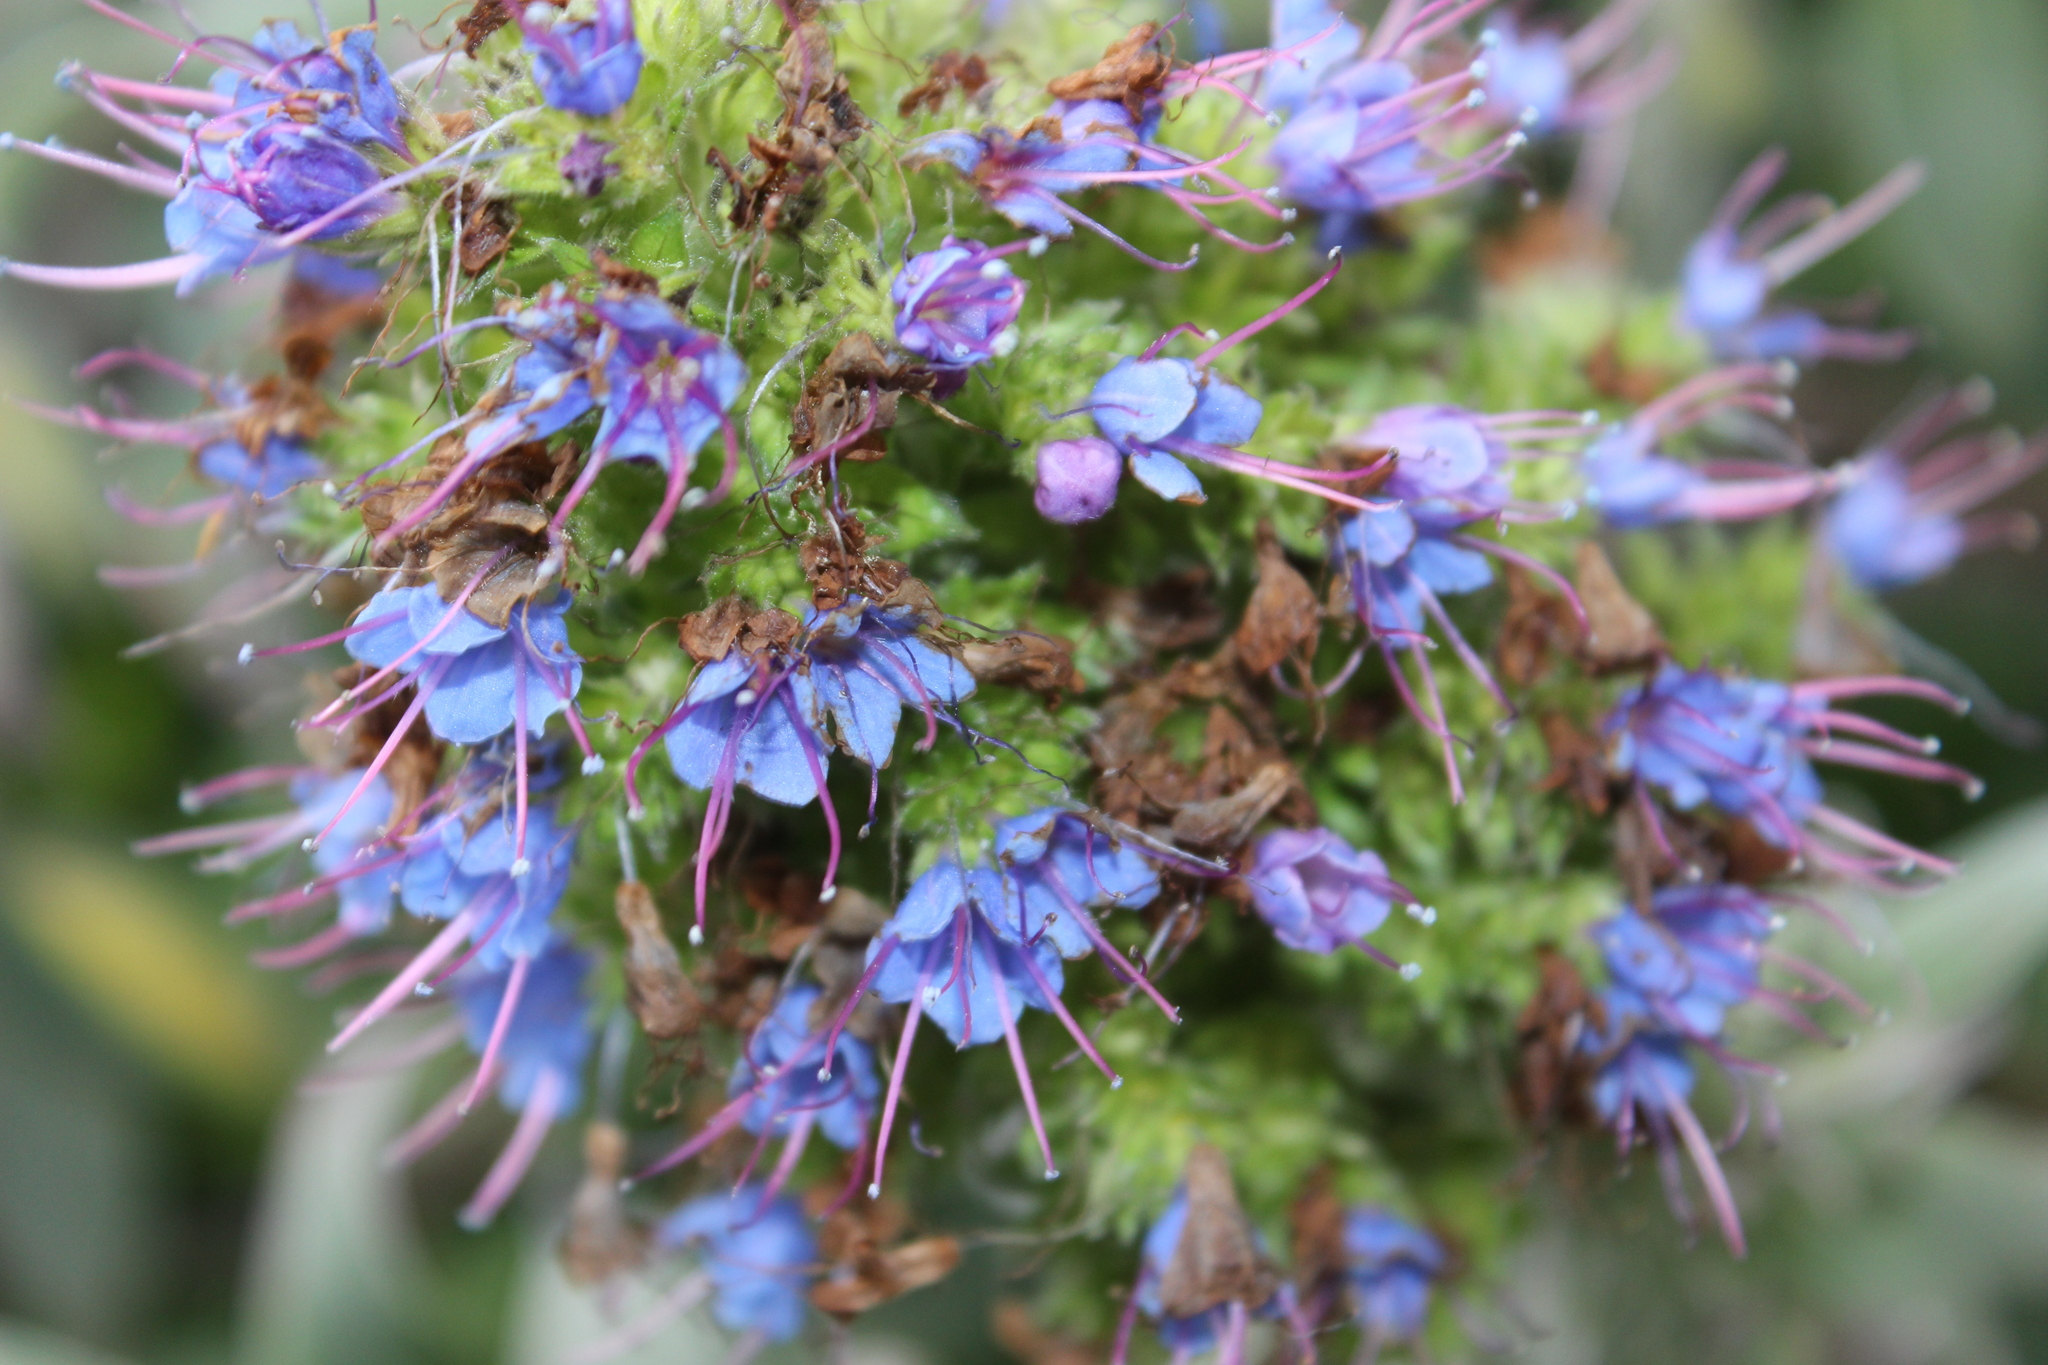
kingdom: Plantae
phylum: Tracheophyta
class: Magnoliopsida
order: Boraginales
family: Boraginaceae
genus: Echium
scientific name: Echium candicans
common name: Pride of madeira
